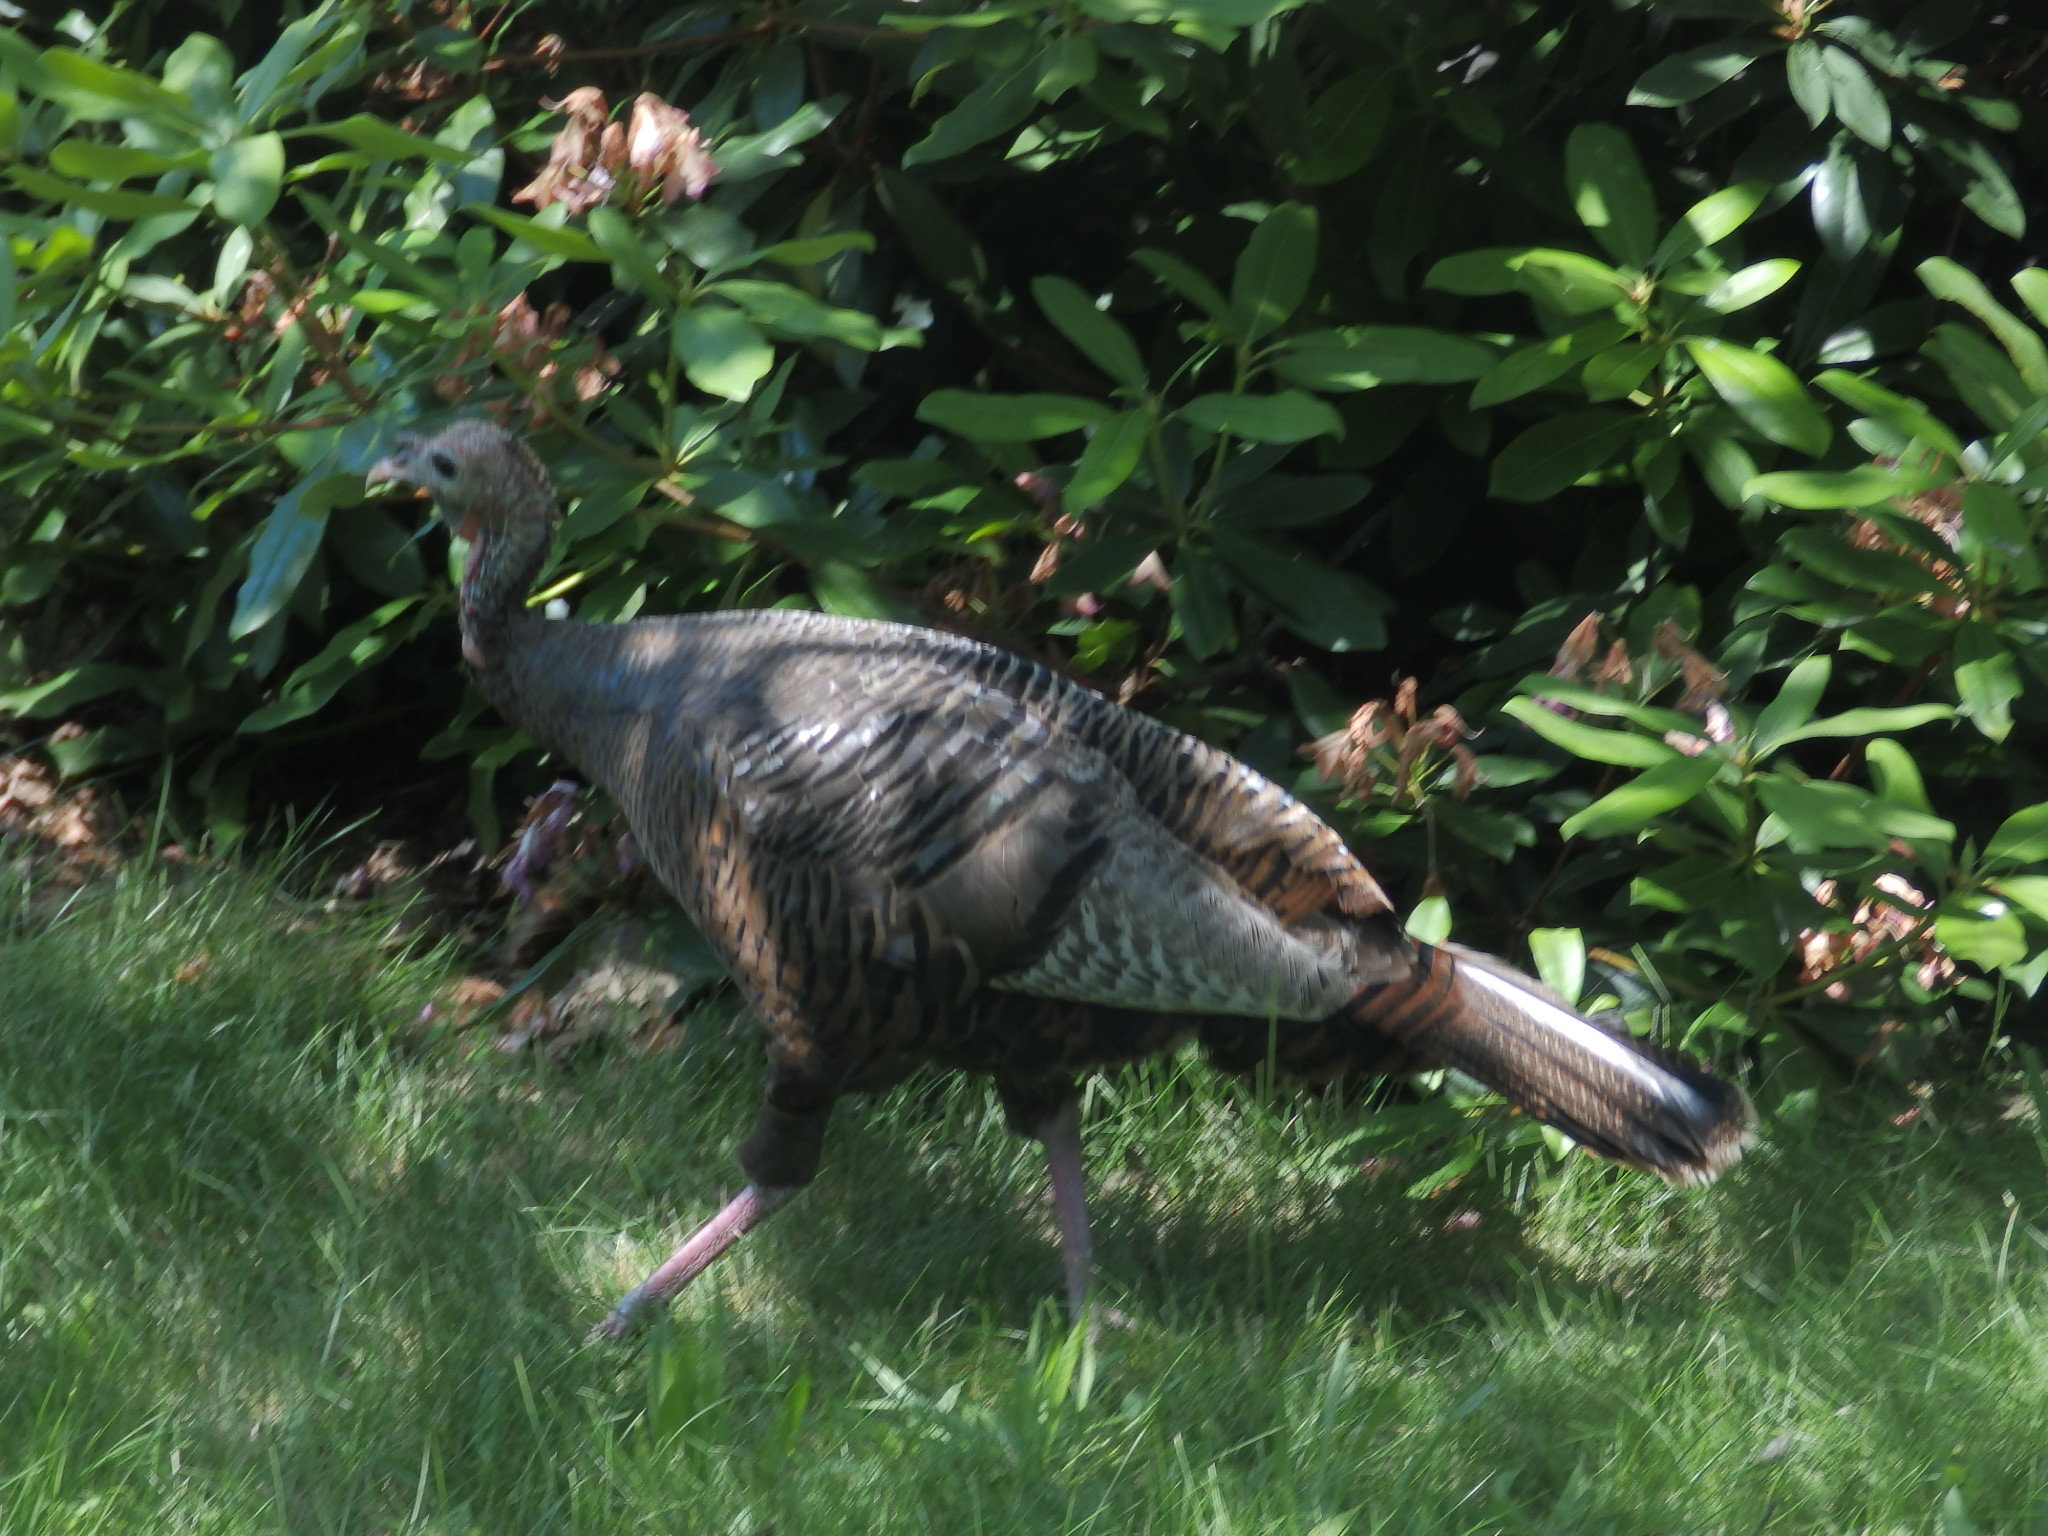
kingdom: Animalia
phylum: Chordata
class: Aves
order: Galliformes
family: Phasianidae
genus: Meleagris
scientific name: Meleagris gallopavo
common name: Wild turkey
